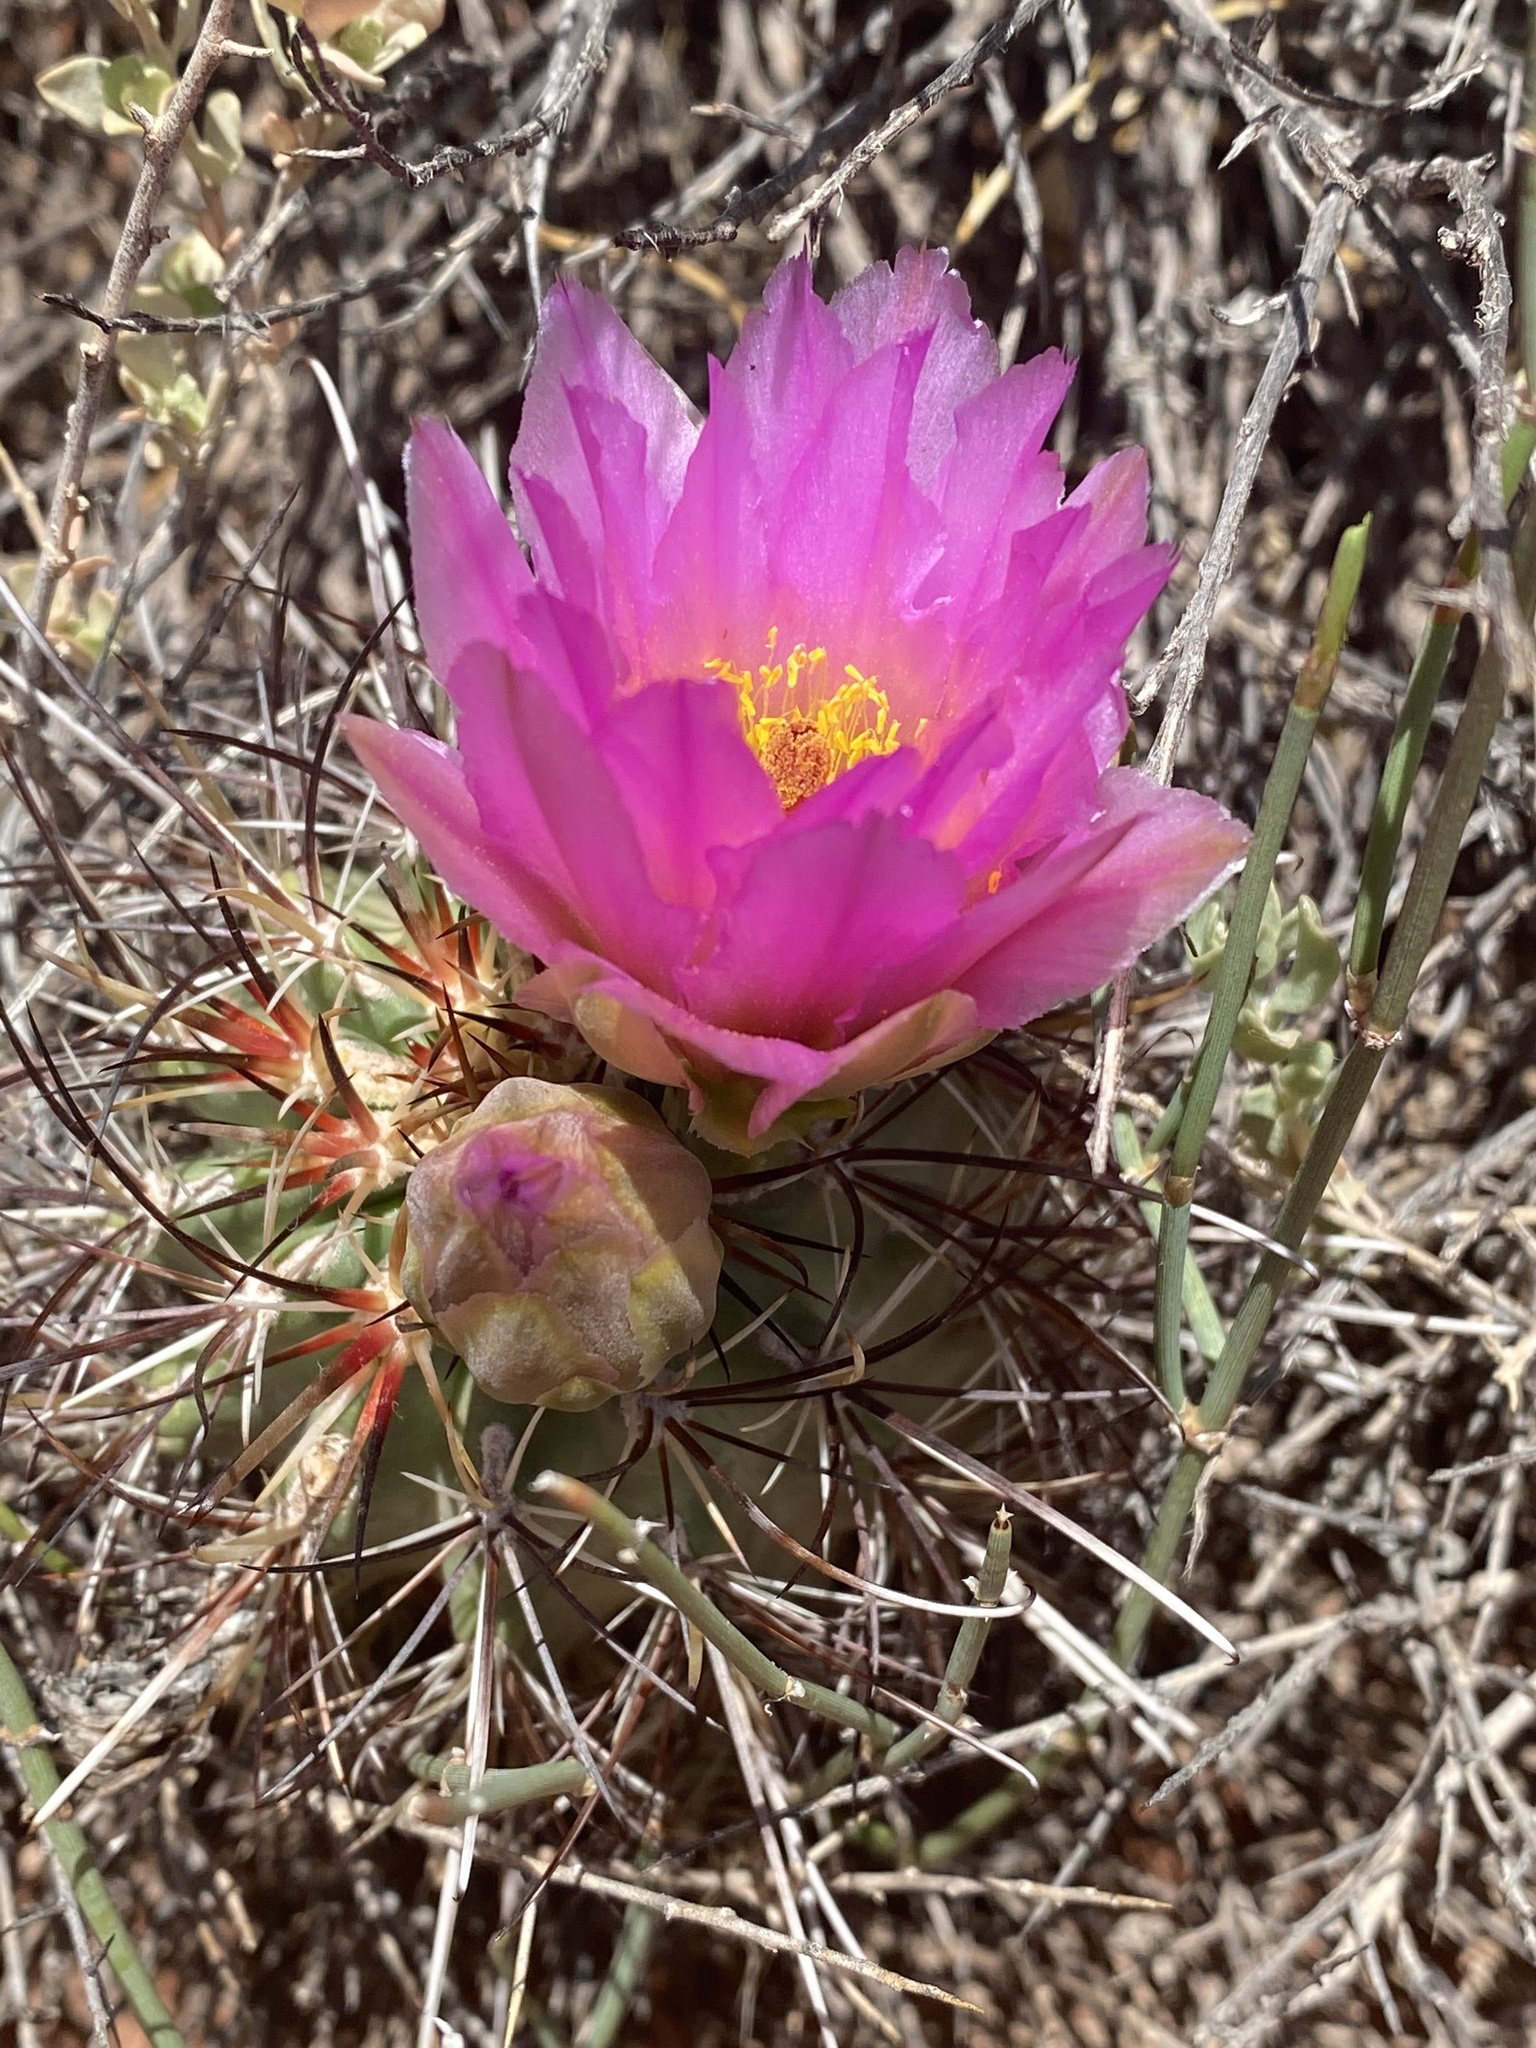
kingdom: Plantae
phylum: Tracheophyta
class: Magnoliopsida
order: Caryophyllales
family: Cactaceae
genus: Sclerocactus
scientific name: Sclerocactus parviflorus
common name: Small-flower fishhook cactus
